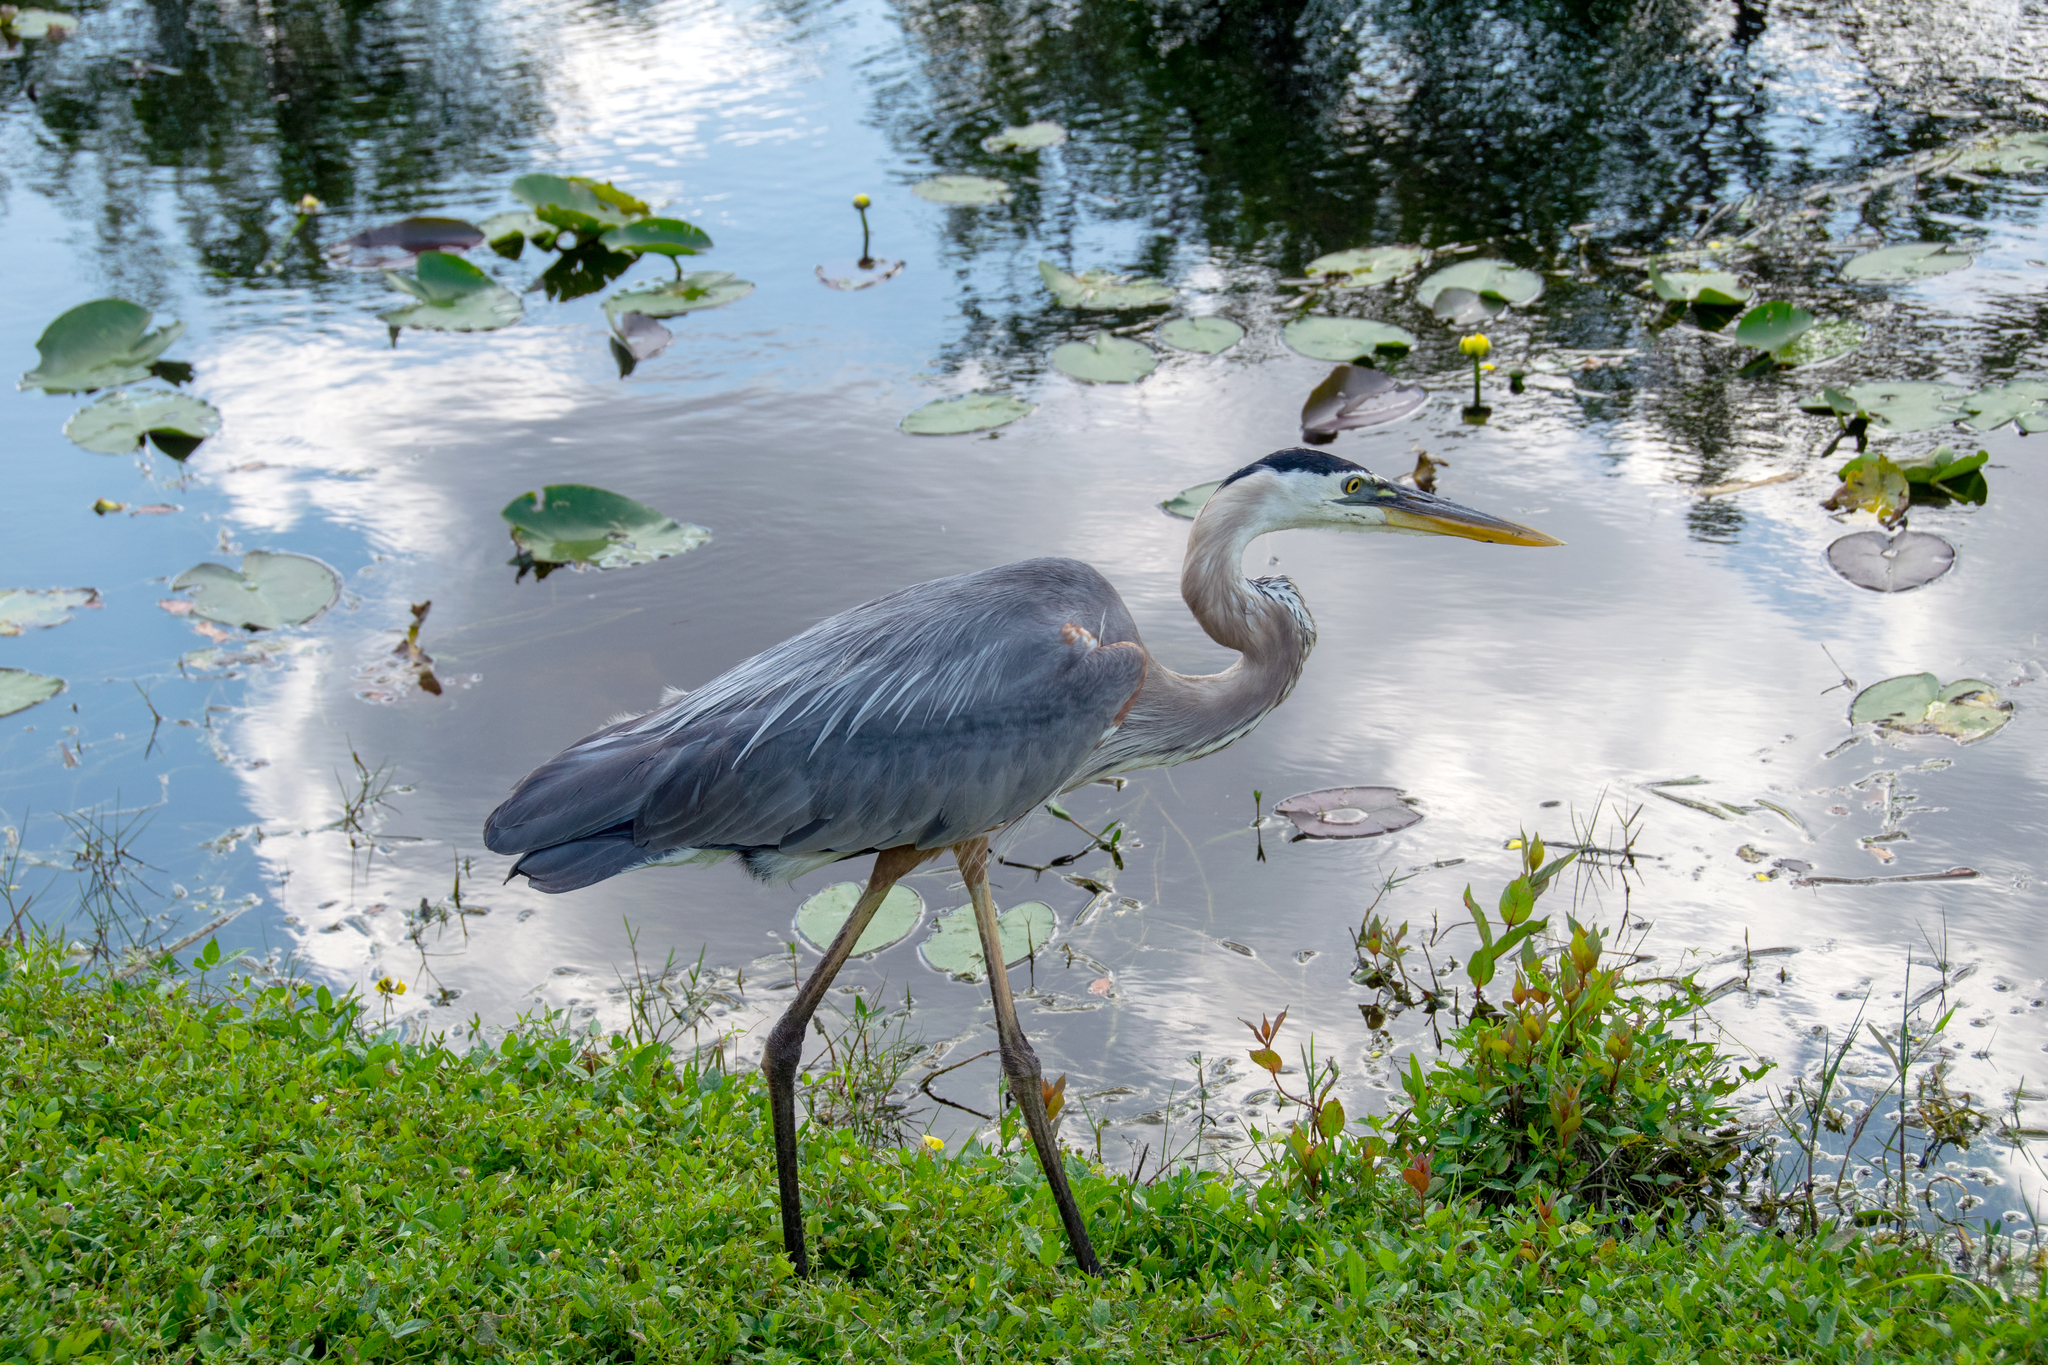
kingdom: Animalia
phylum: Chordata
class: Aves
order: Pelecaniformes
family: Ardeidae
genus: Ardea
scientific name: Ardea herodias
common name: Great blue heron
